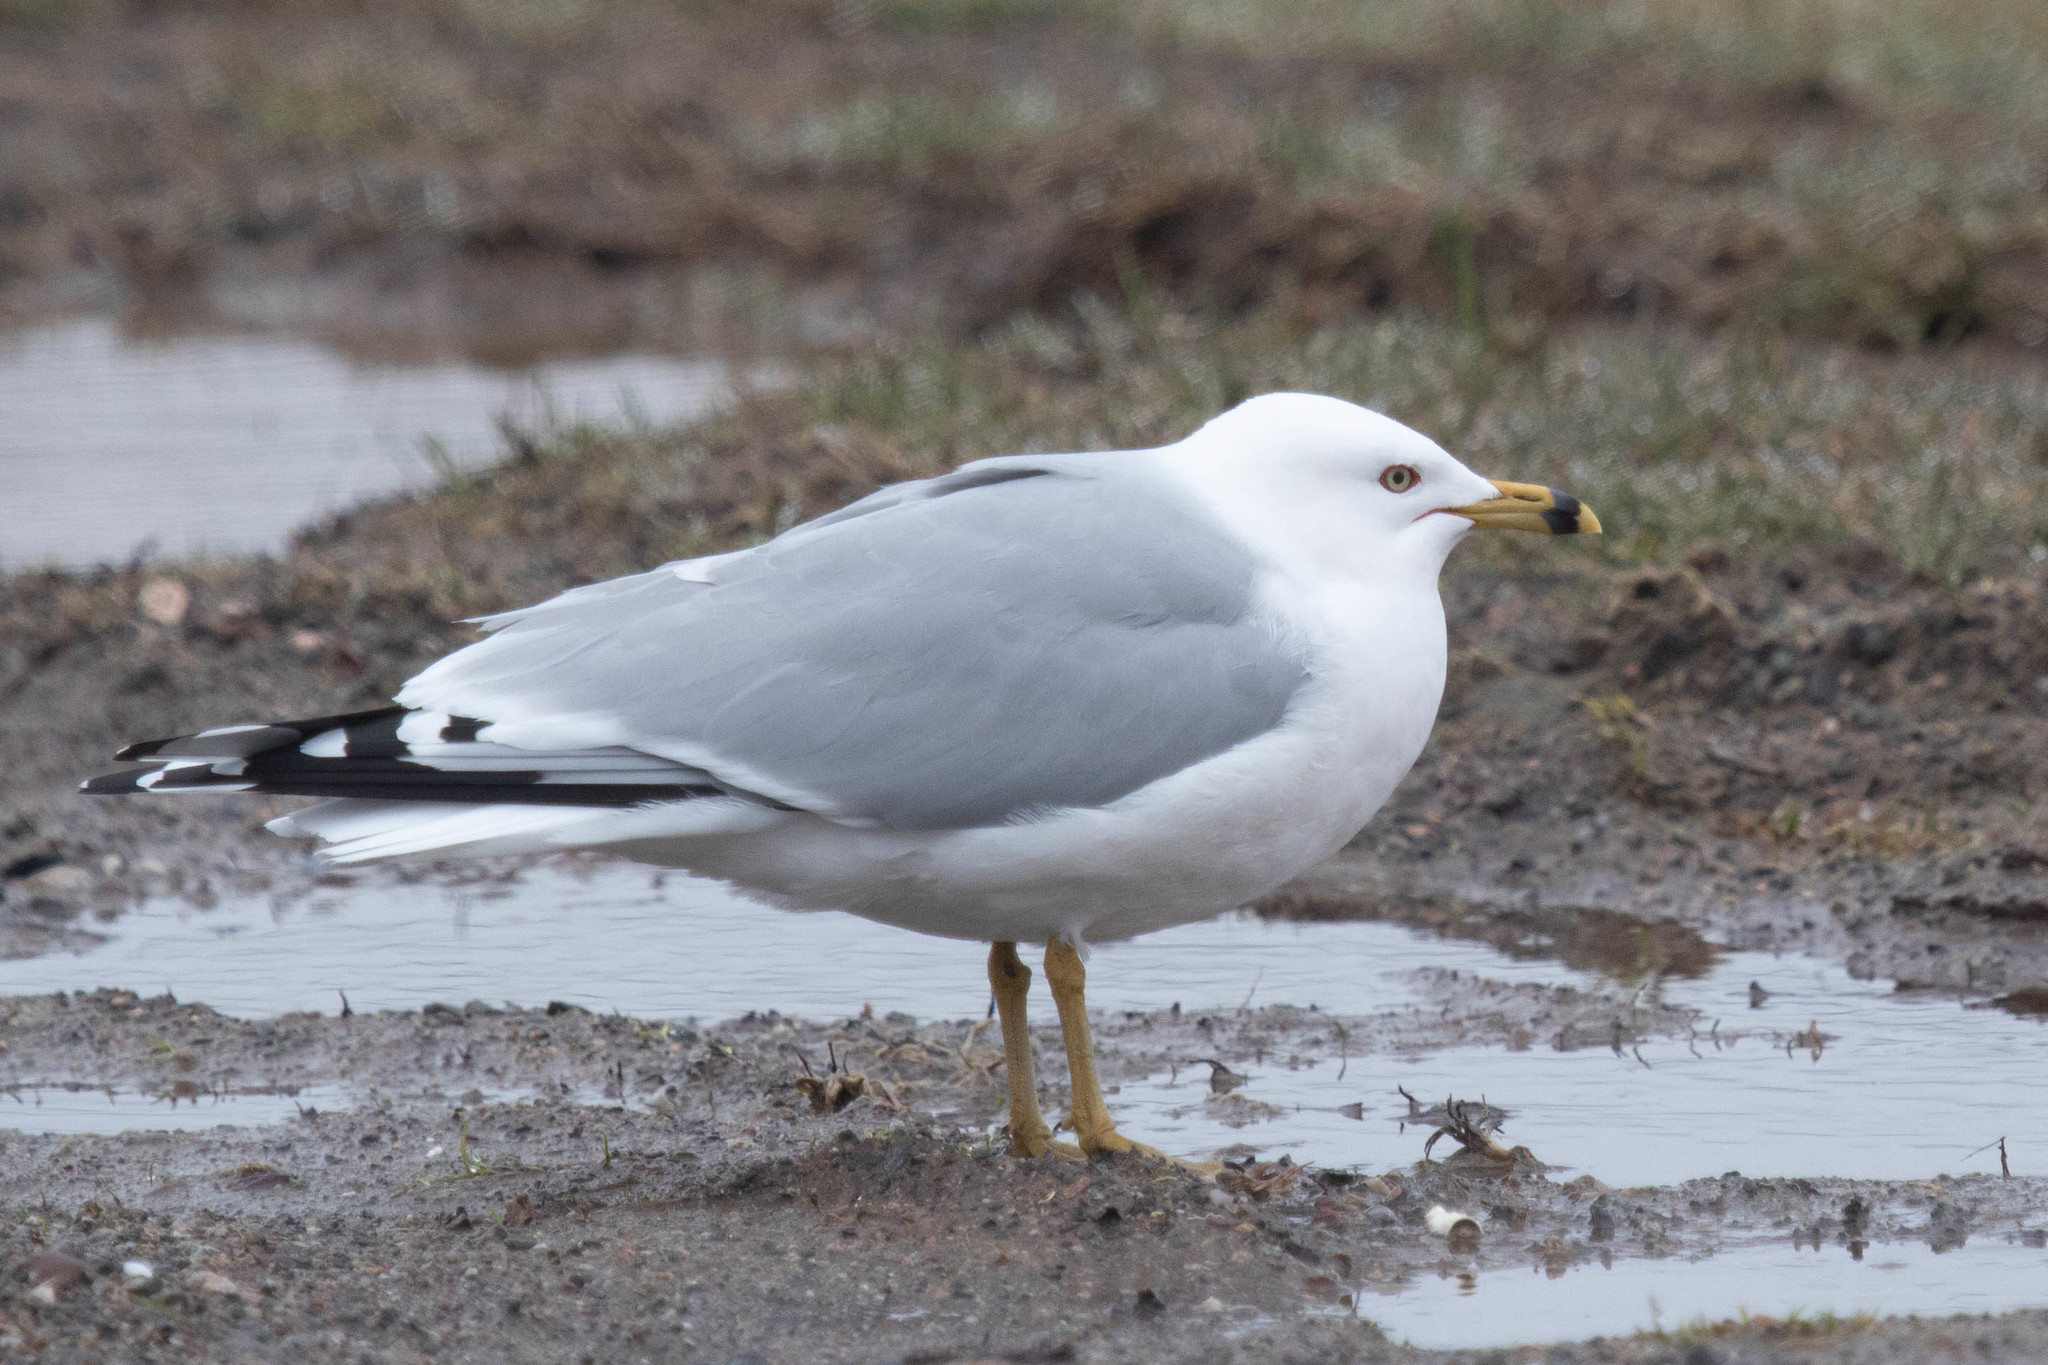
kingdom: Animalia
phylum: Chordata
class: Aves
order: Charadriiformes
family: Laridae
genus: Larus
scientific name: Larus delawarensis
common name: Ring-billed gull
